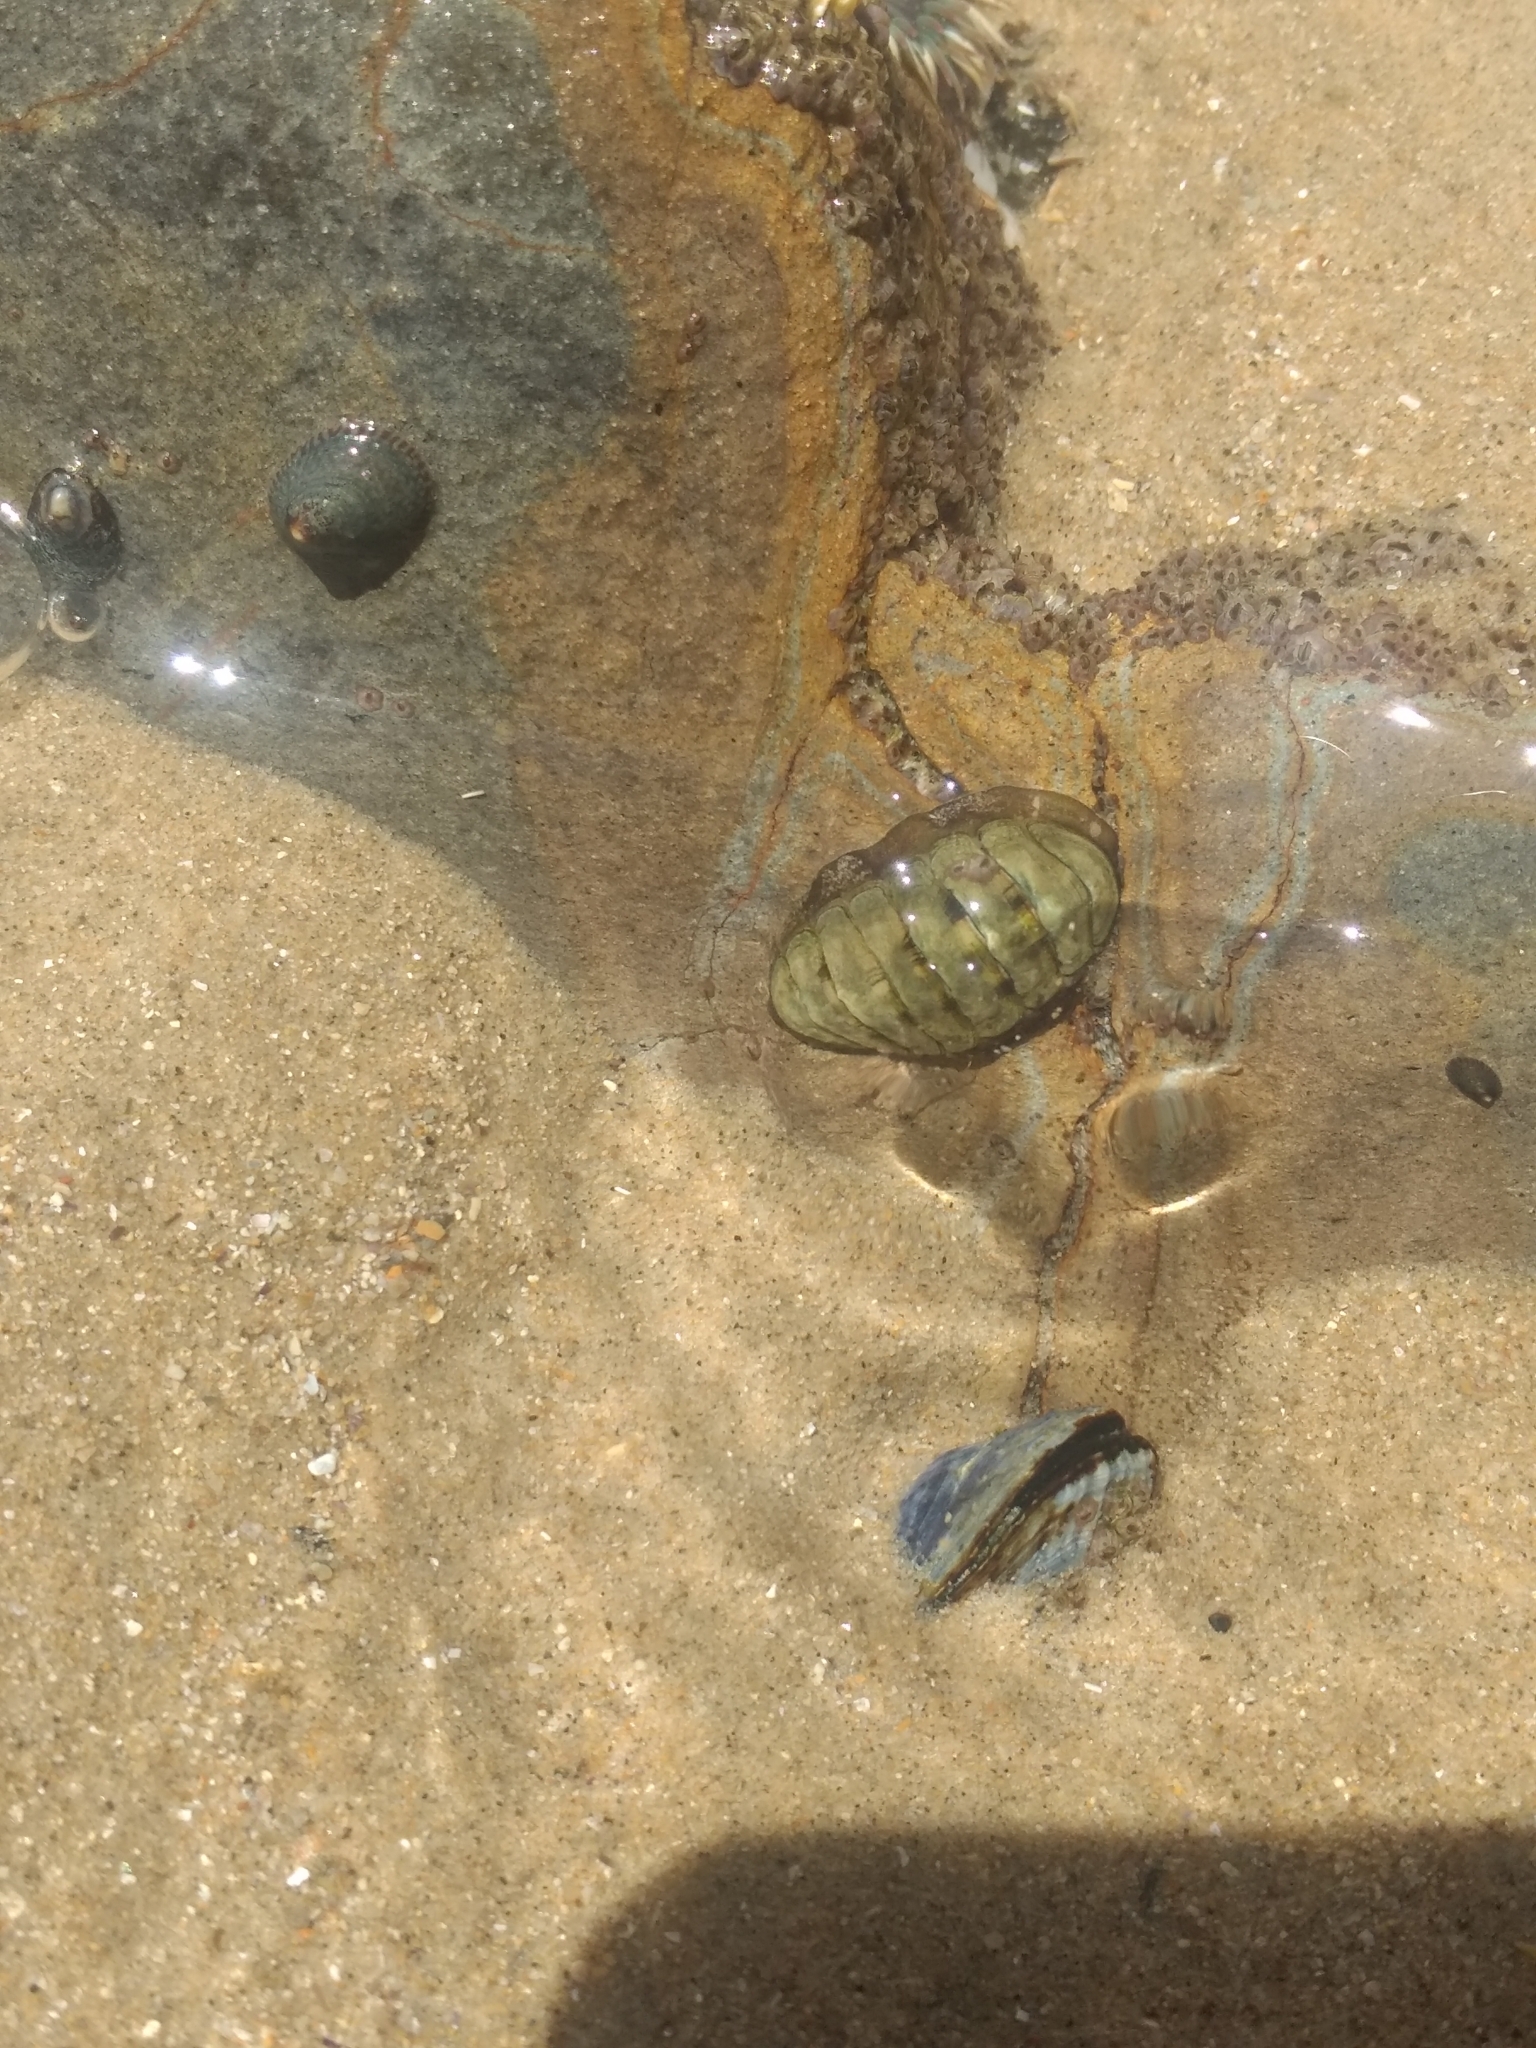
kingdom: Animalia
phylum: Mollusca
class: Polyplacophora
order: Chitonida
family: Tonicellidae
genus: Cyanoplax
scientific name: Cyanoplax hartwegii
